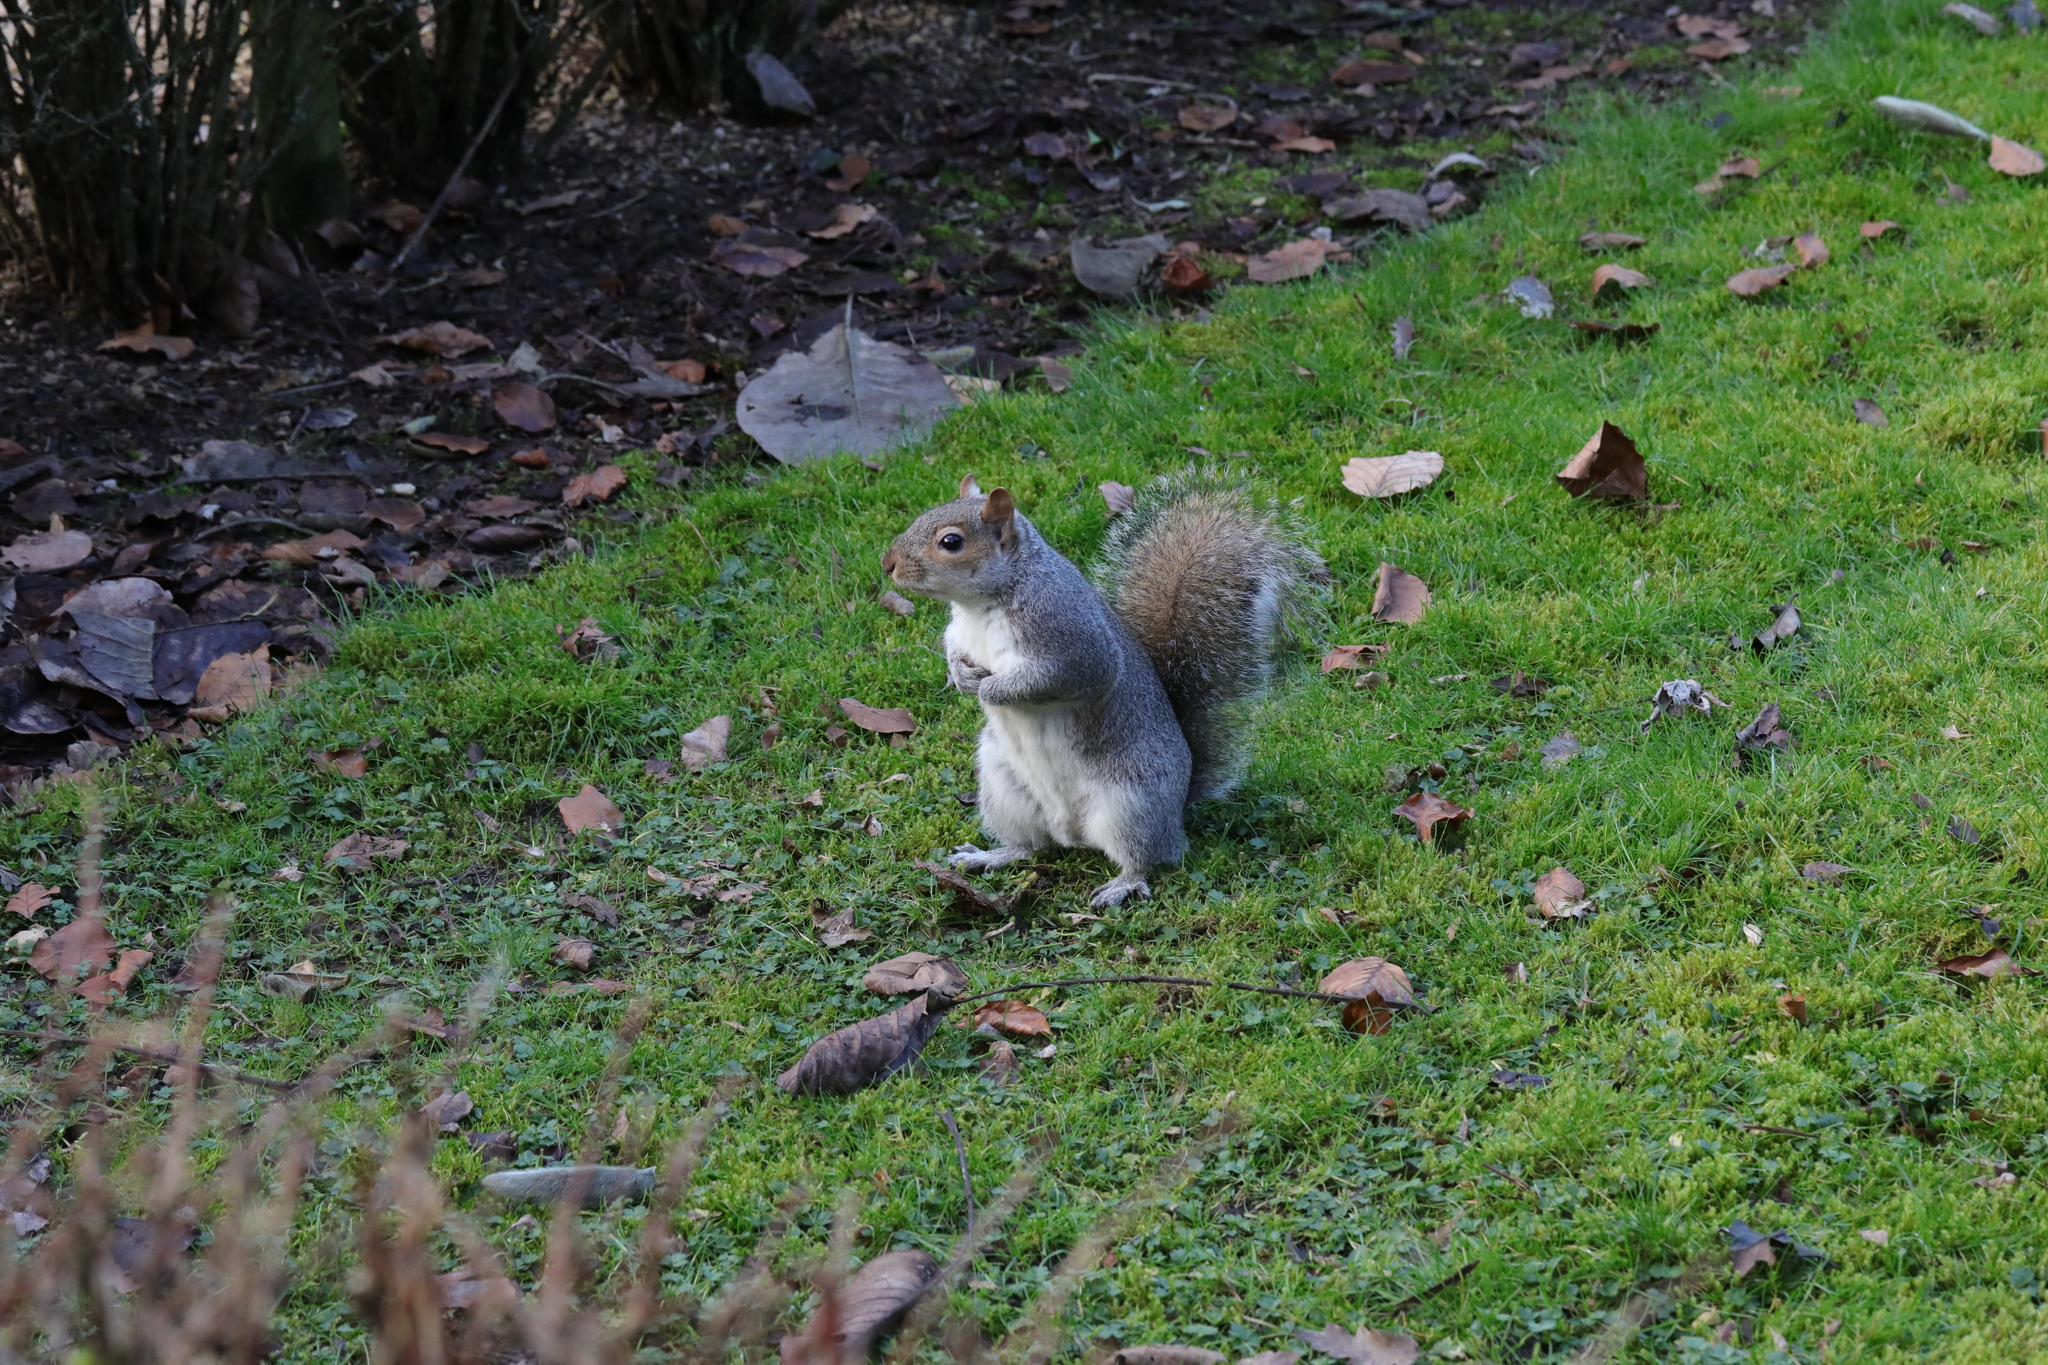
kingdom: Animalia
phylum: Chordata
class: Mammalia
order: Rodentia
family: Sciuridae
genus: Sciurus
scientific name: Sciurus carolinensis
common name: Eastern gray squirrel
